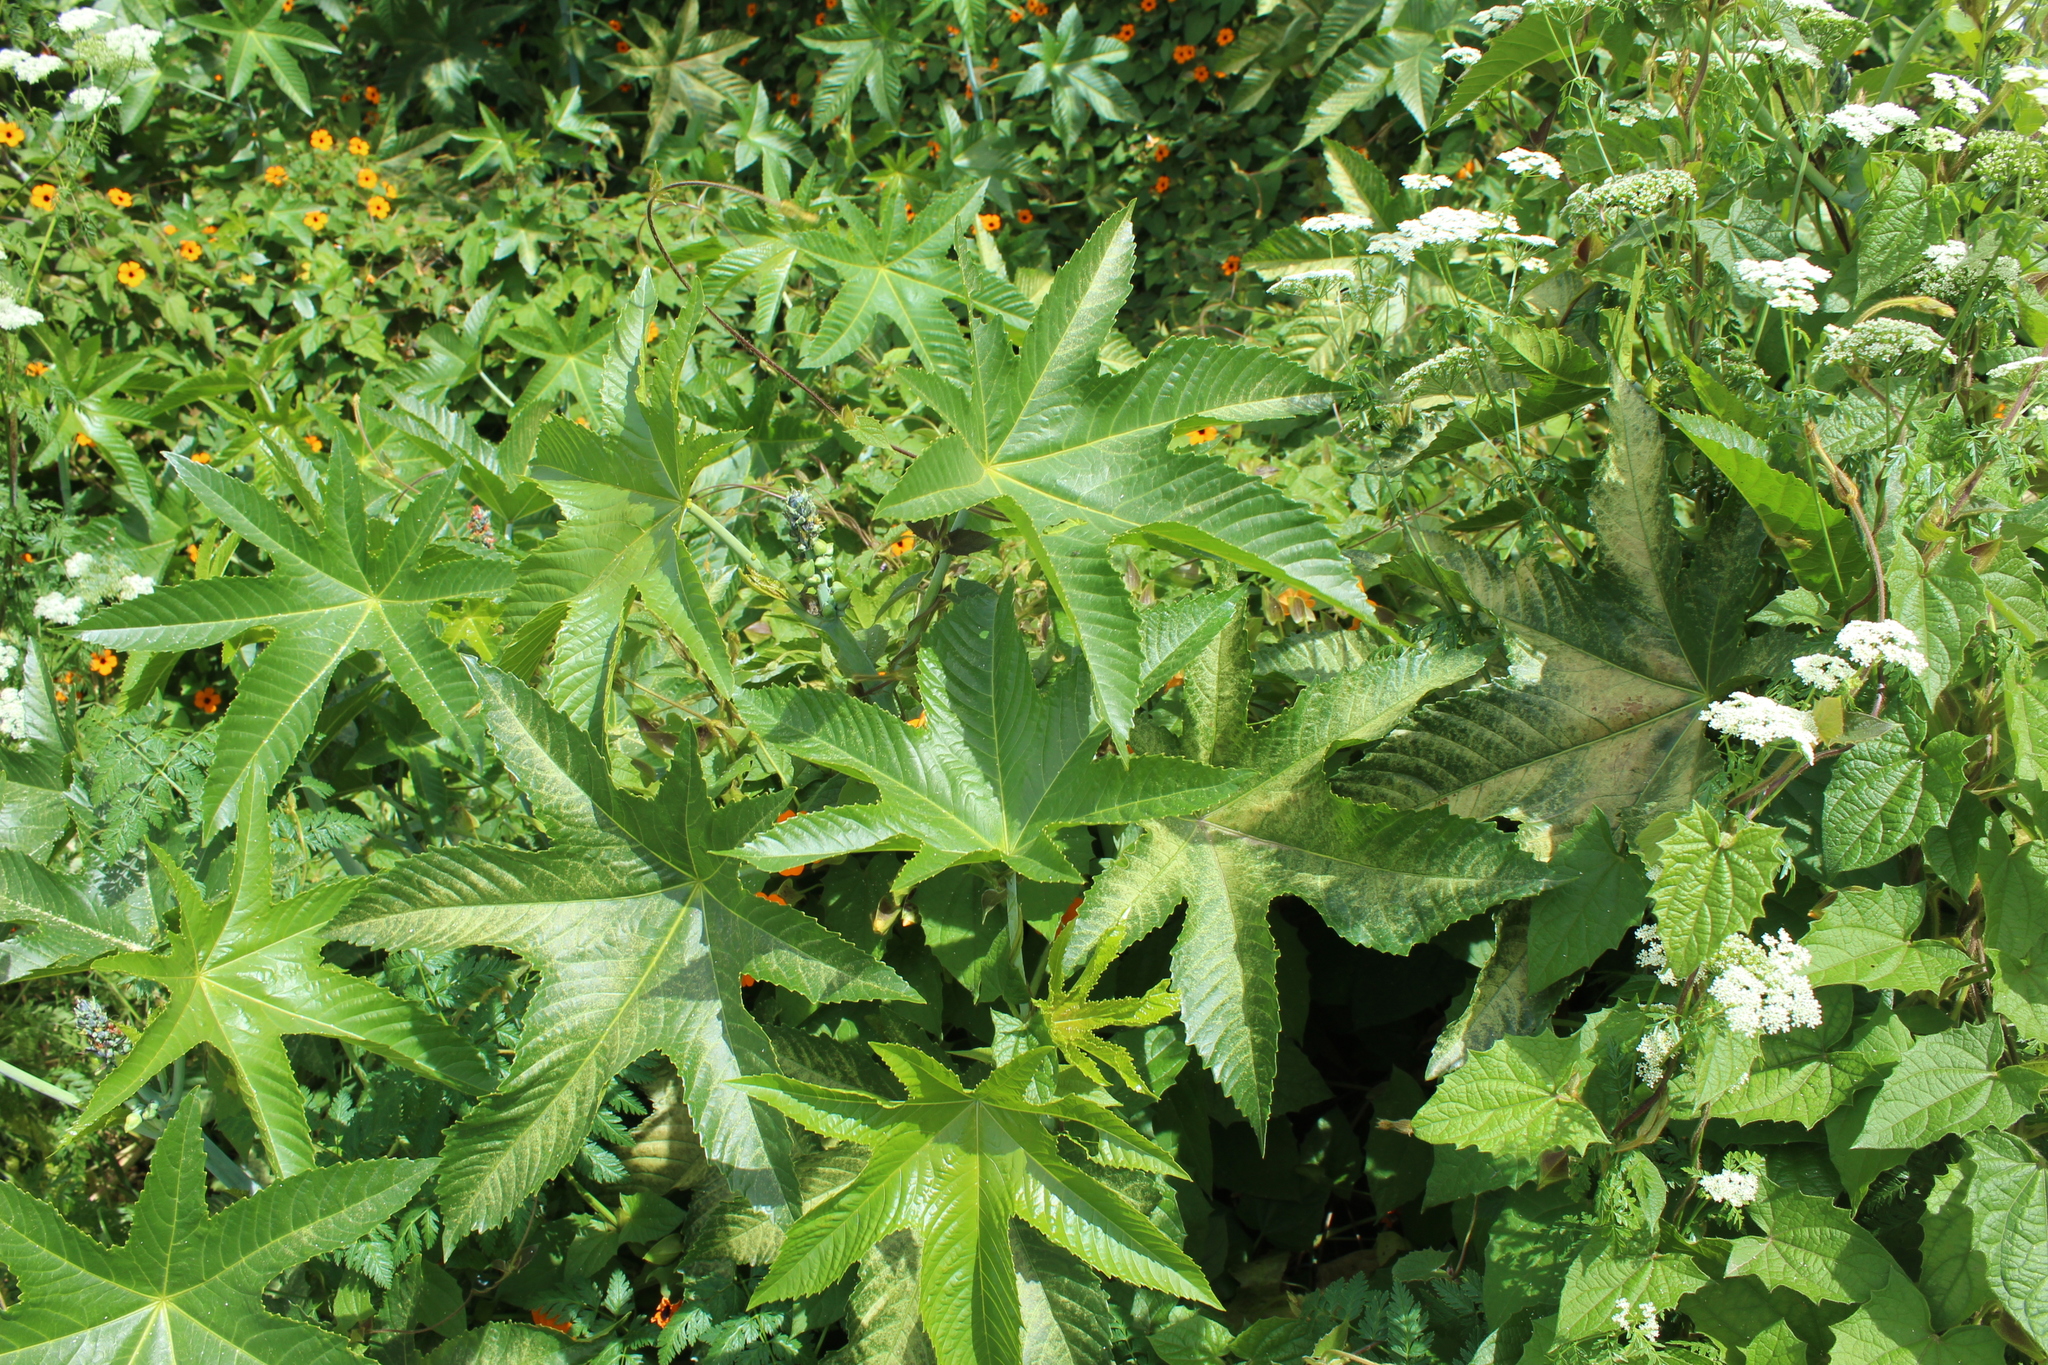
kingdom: Plantae
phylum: Tracheophyta
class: Magnoliopsida
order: Malpighiales
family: Euphorbiaceae
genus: Ricinus
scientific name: Ricinus communis
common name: Castor-oil-plant
